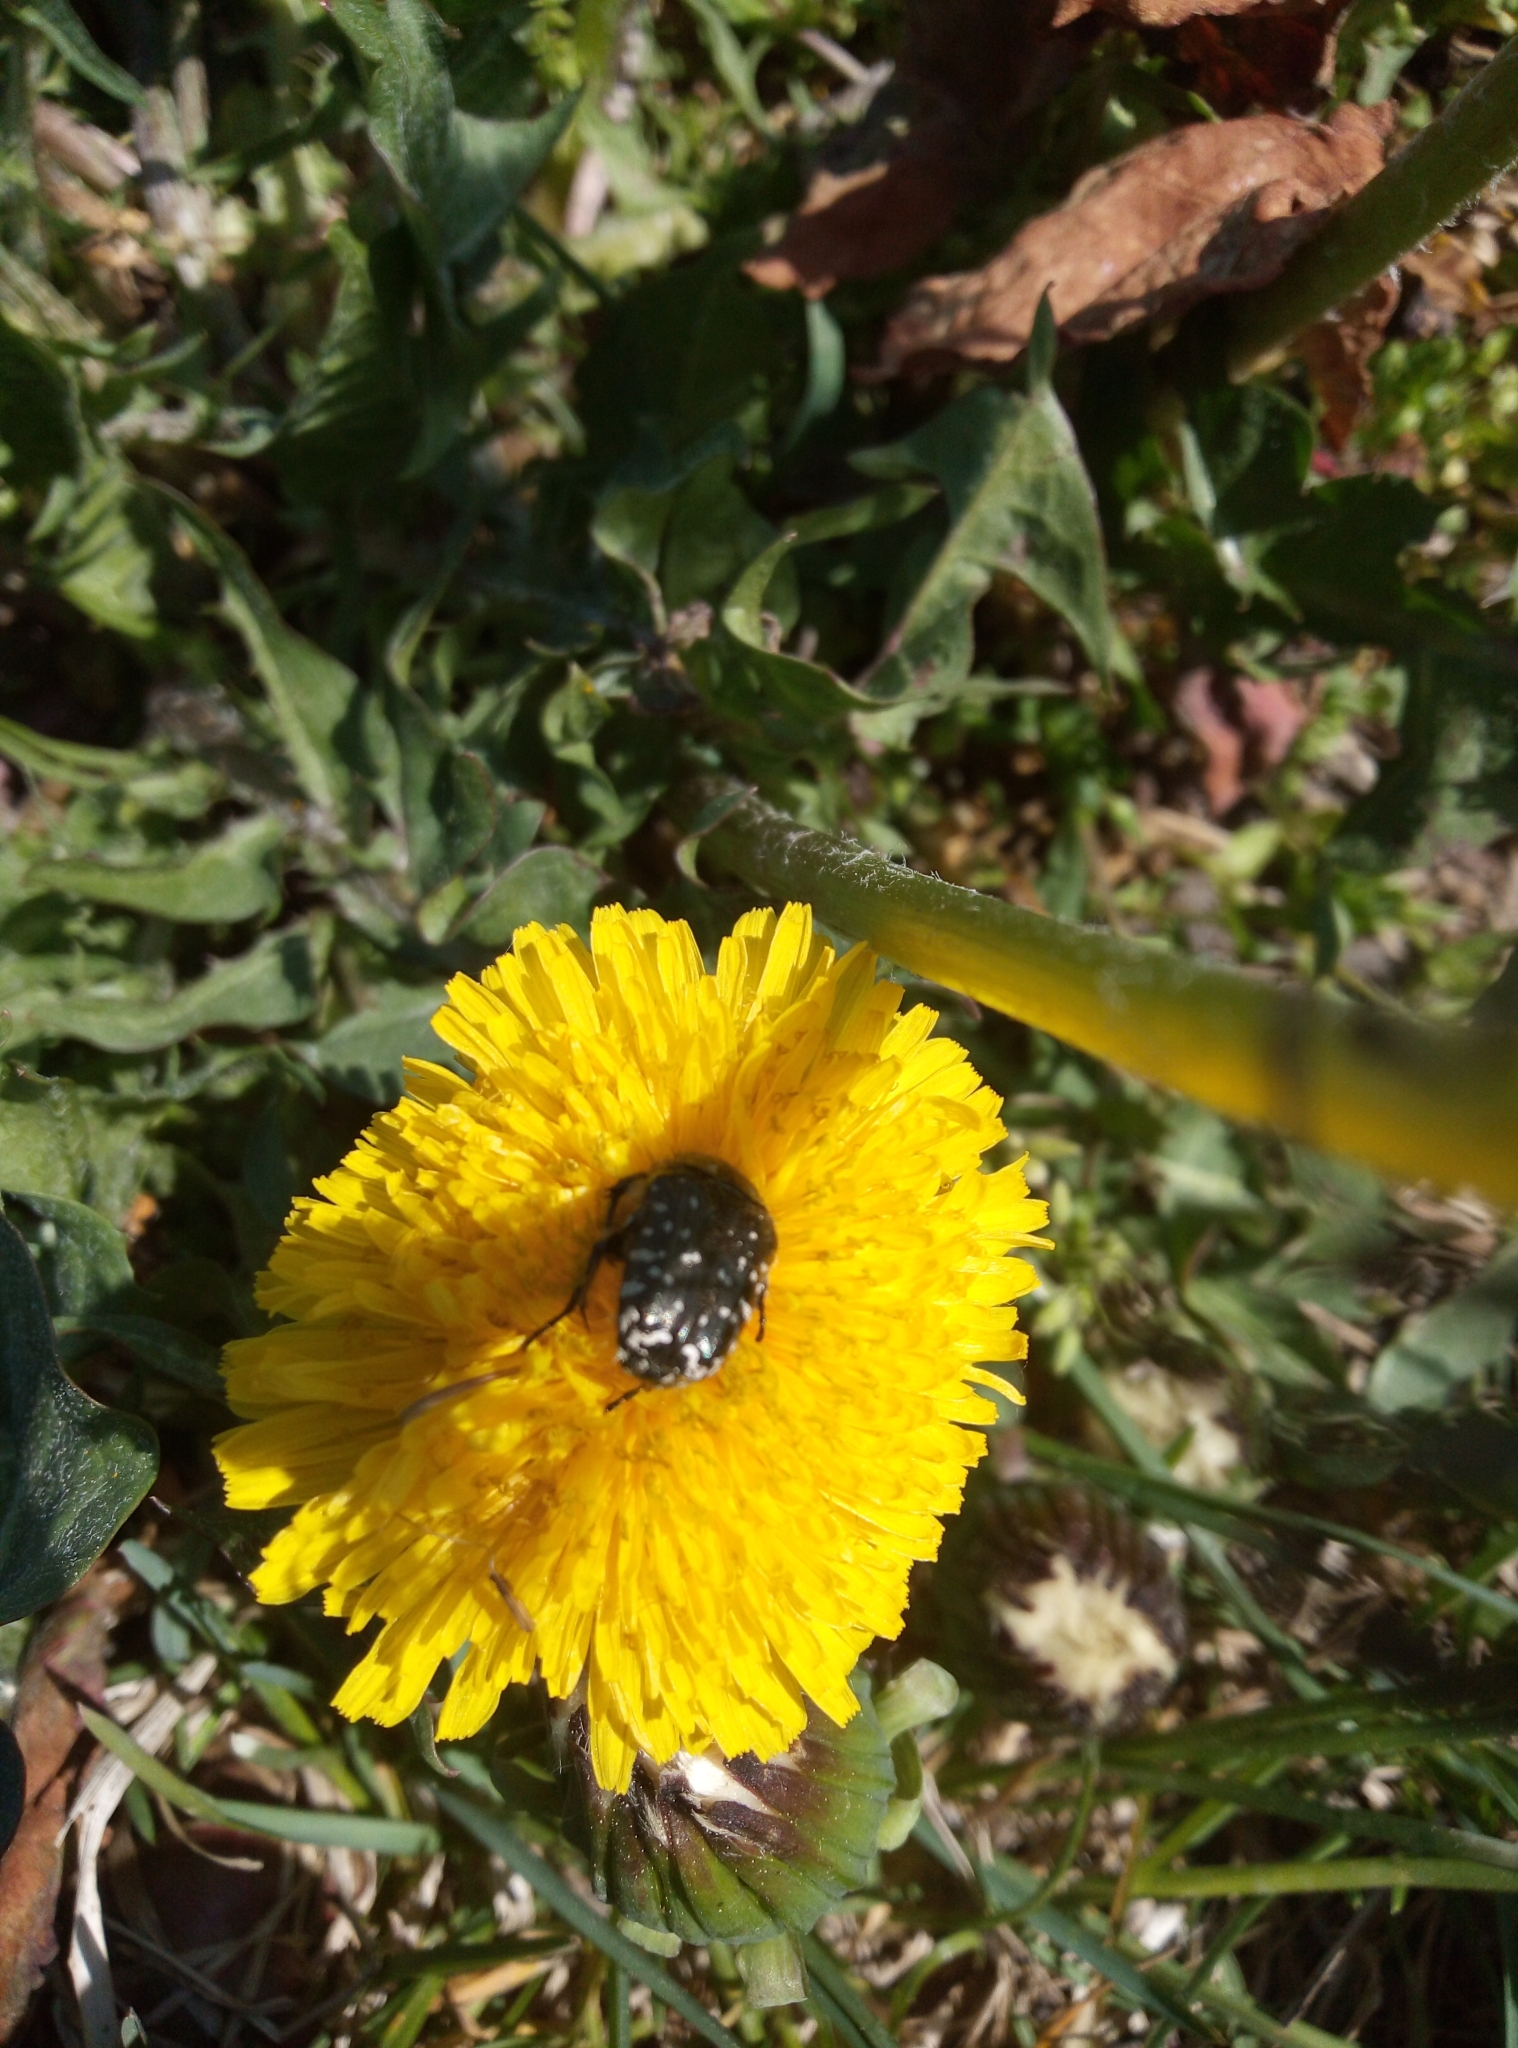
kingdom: Animalia
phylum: Arthropoda
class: Insecta
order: Coleoptera
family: Scarabaeidae
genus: Oxythyrea
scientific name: Oxythyrea funesta
